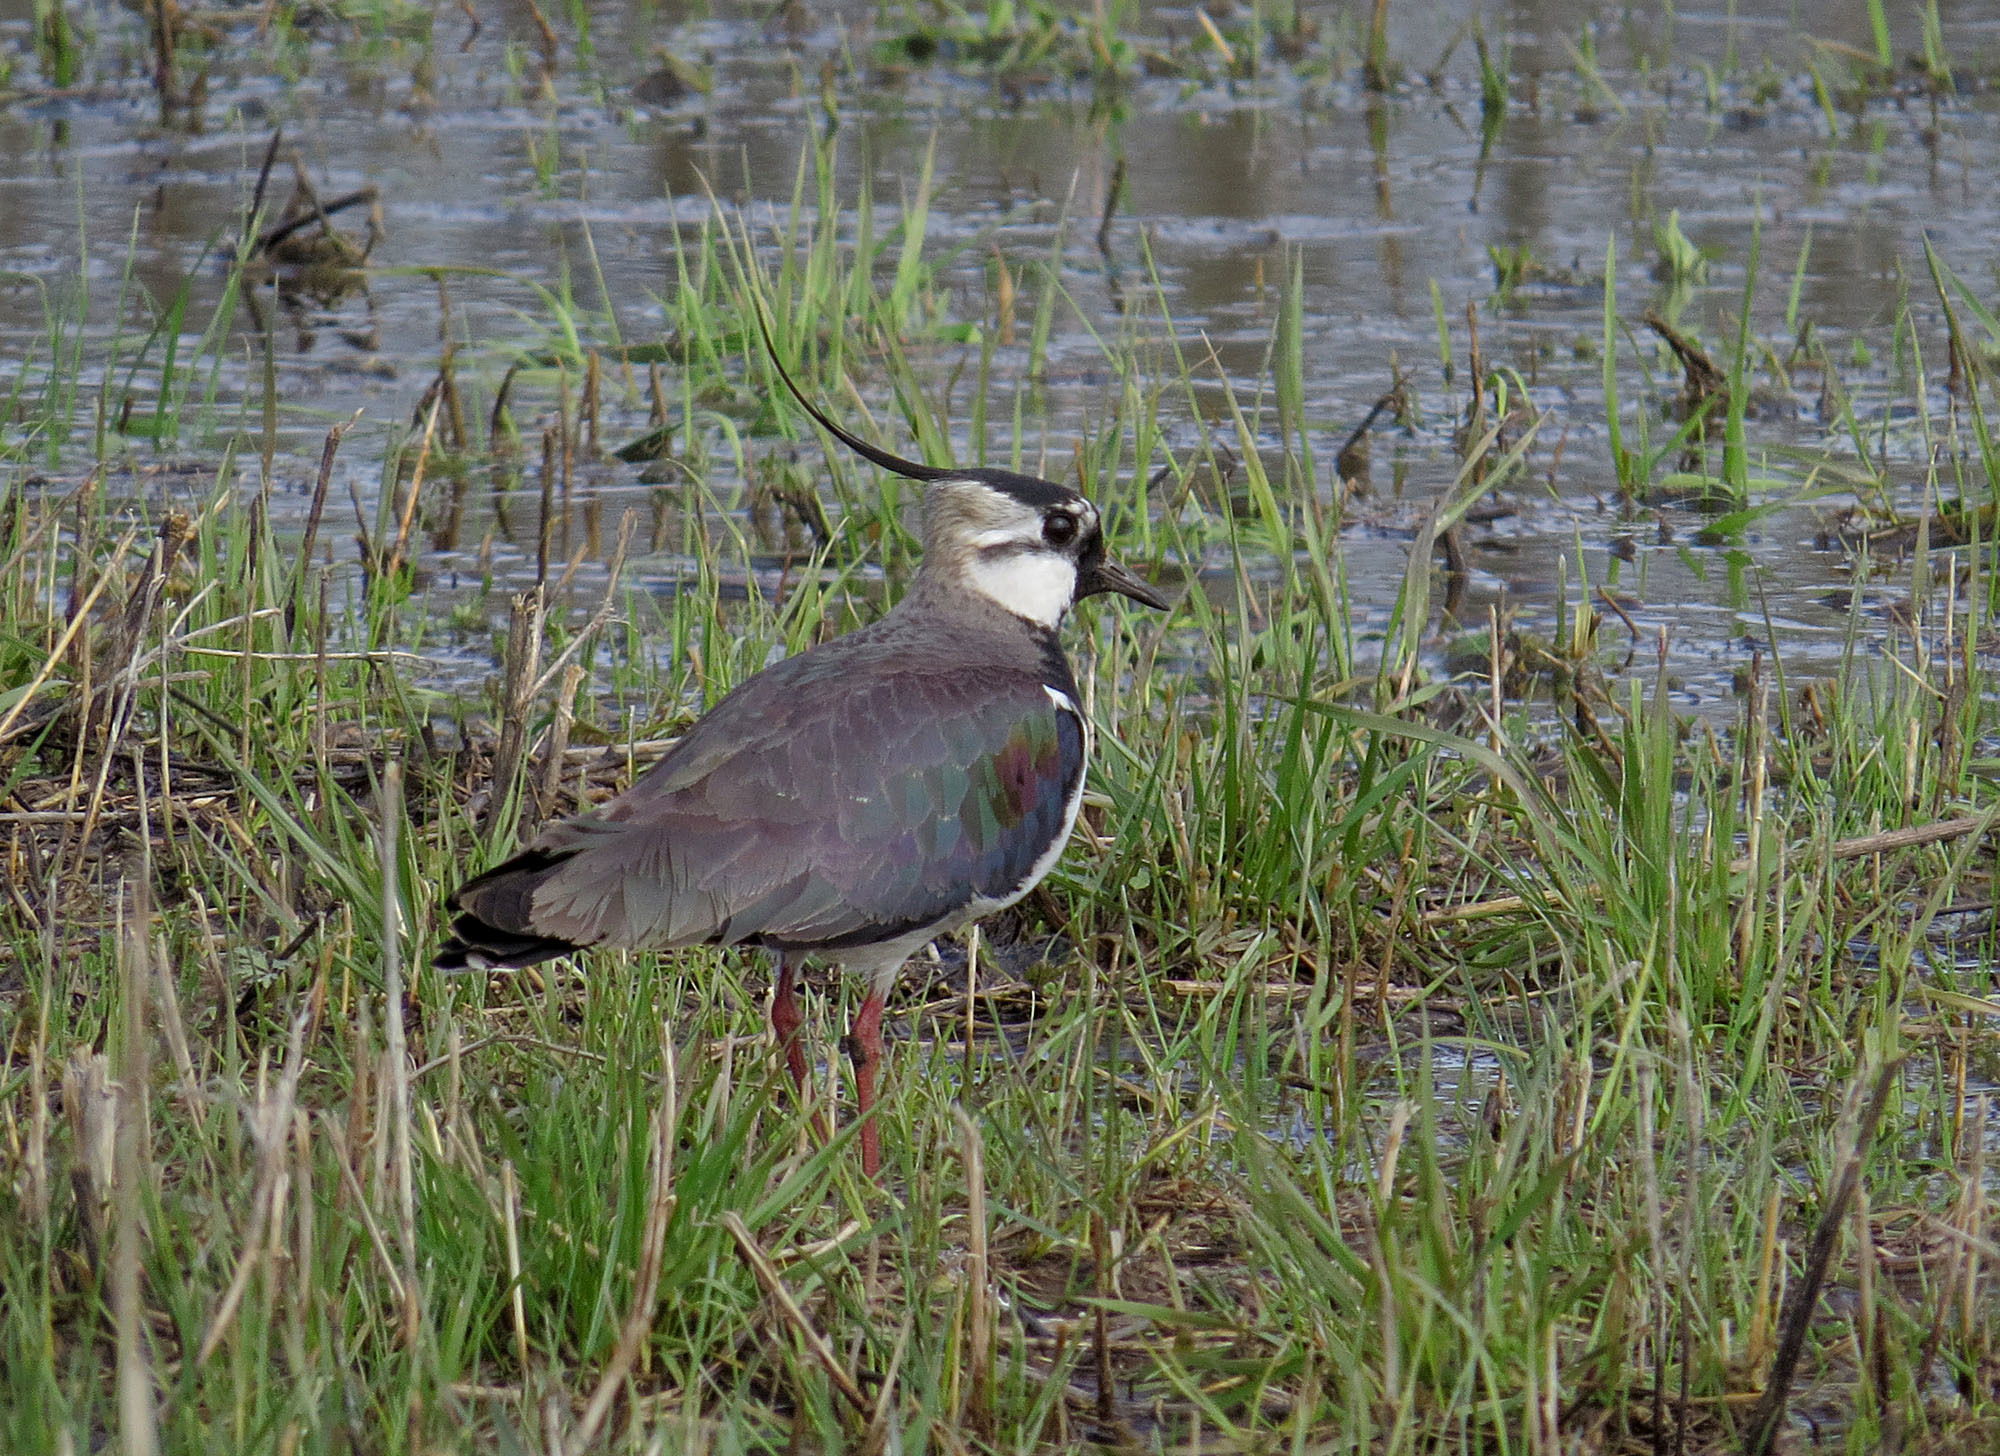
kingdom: Animalia
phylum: Chordata
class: Aves
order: Charadriiformes
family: Charadriidae
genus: Vanellus
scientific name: Vanellus vanellus
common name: Northern lapwing
